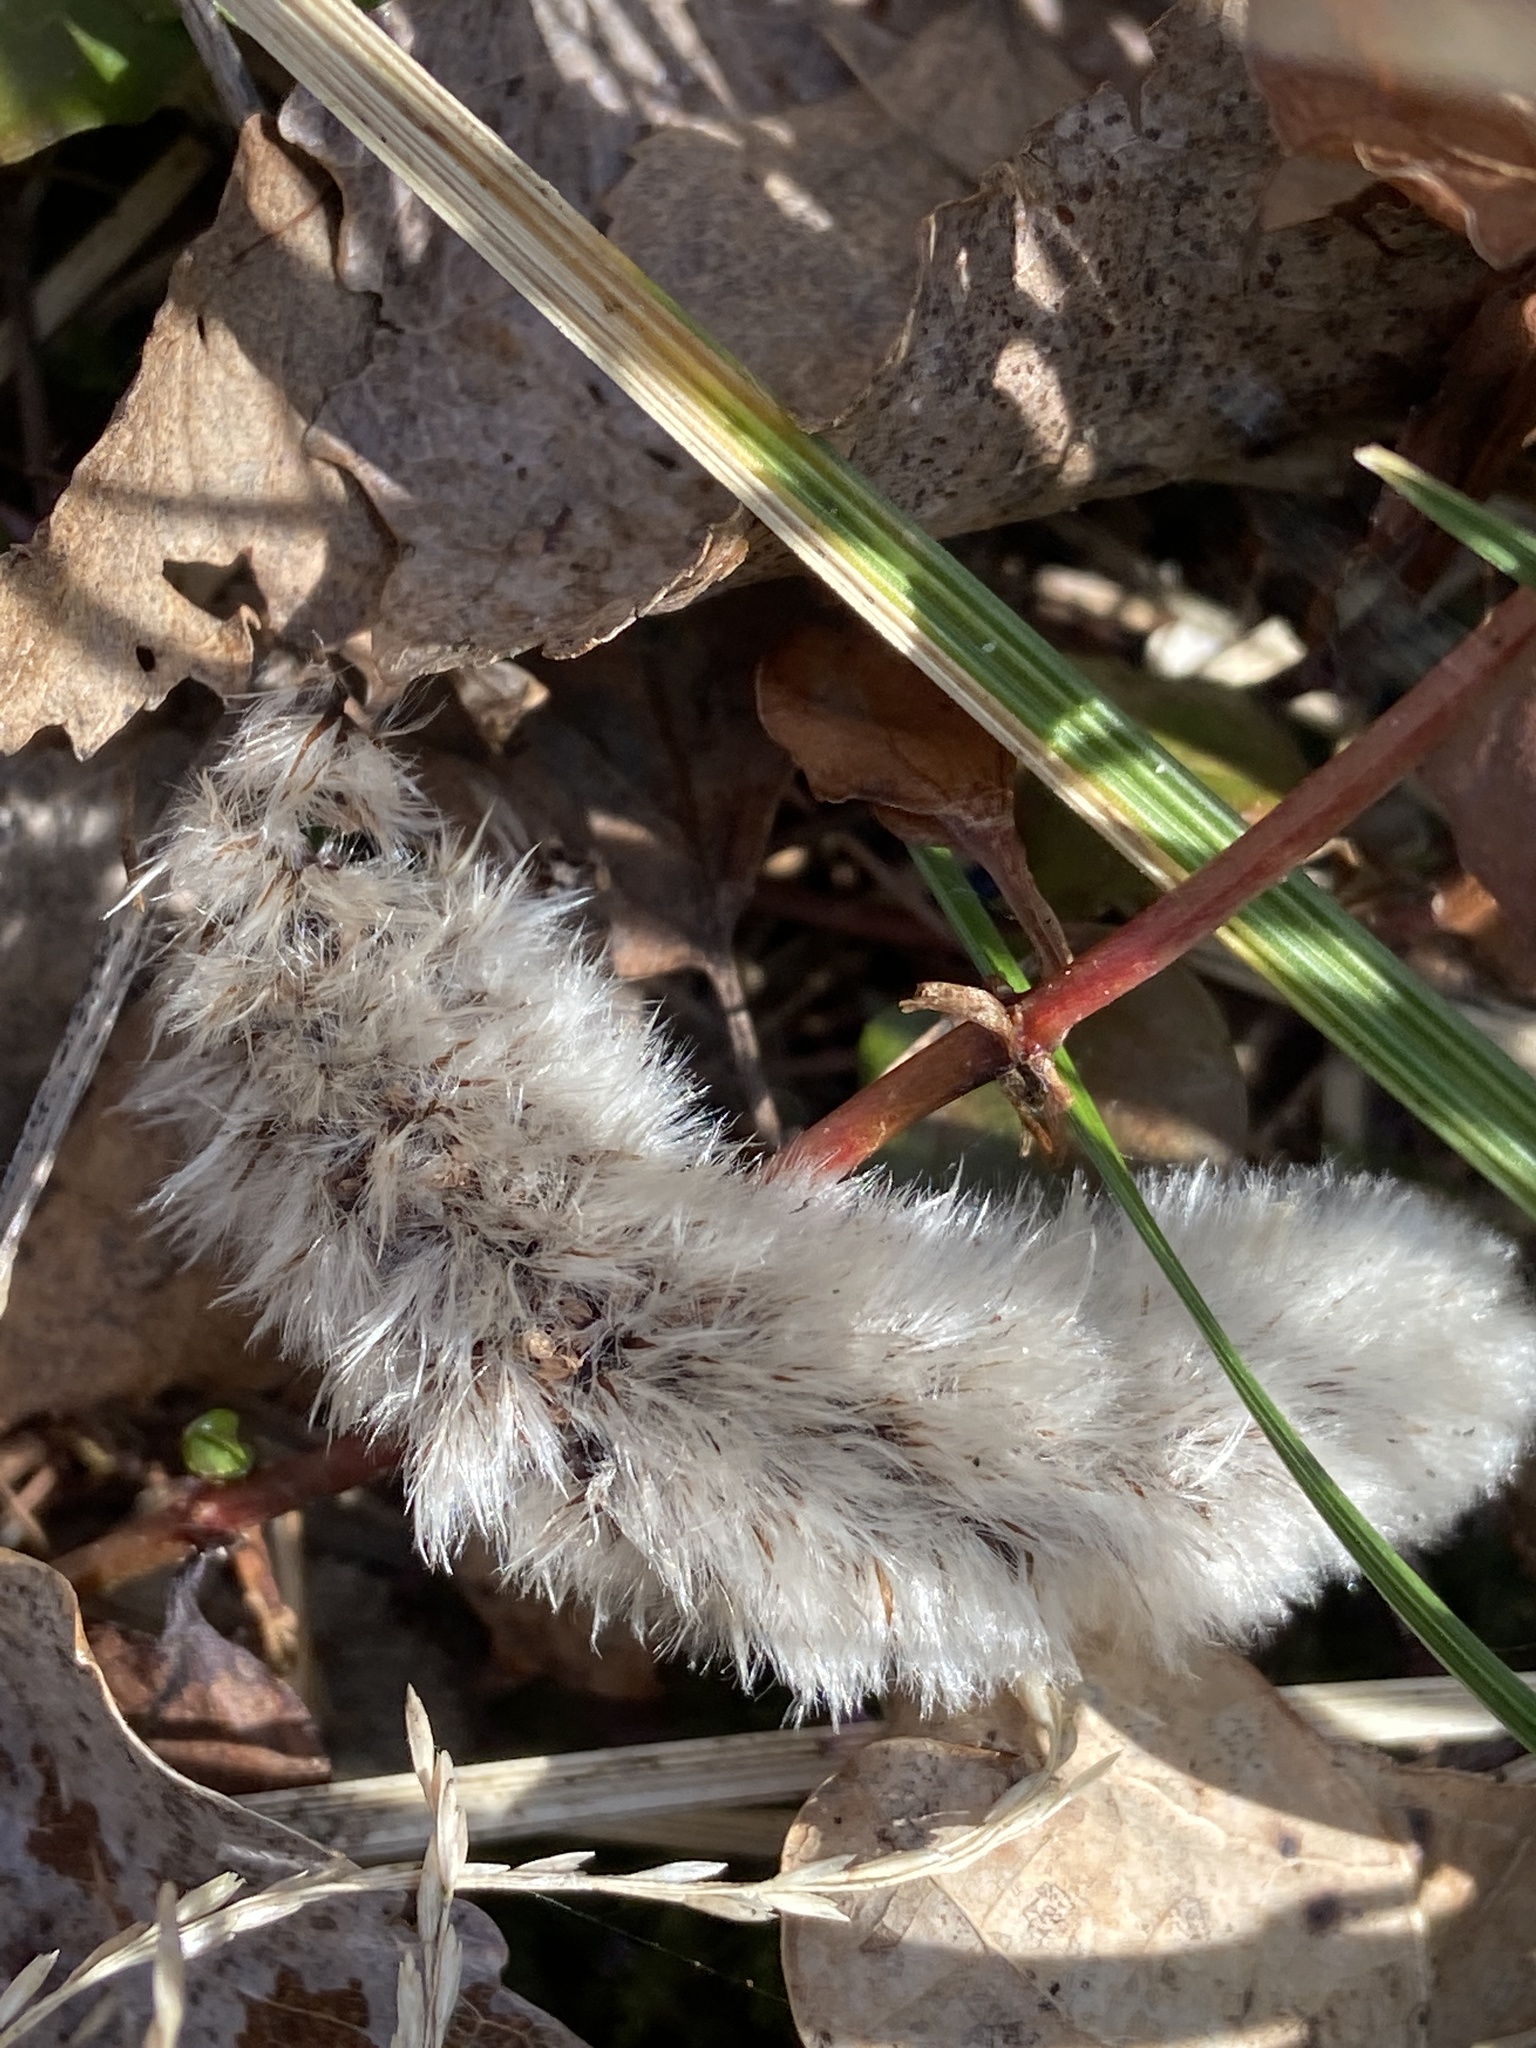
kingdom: Plantae
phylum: Tracheophyta
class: Magnoliopsida
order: Malpighiales
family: Salicaceae
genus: Salix
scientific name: Salix caprea
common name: Goat willow
